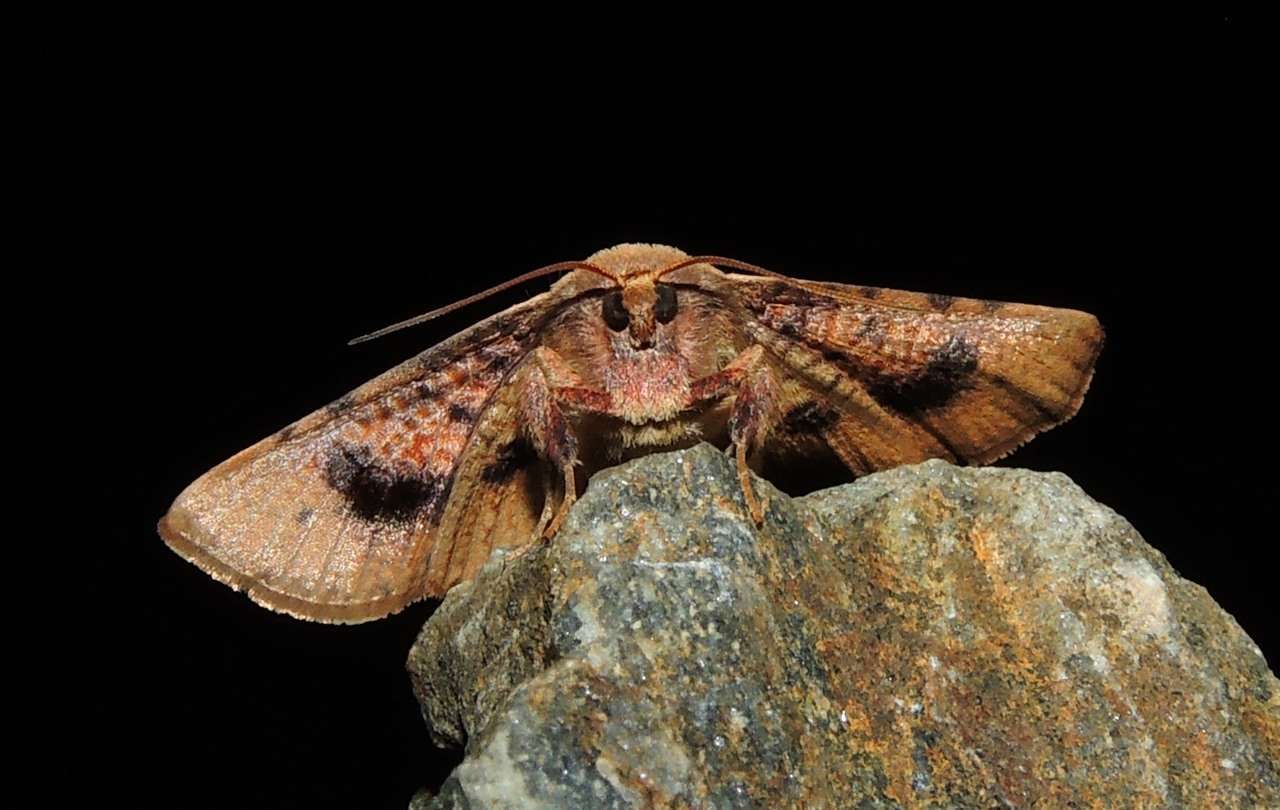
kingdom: Animalia
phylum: Arthropoda
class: Insecta
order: Lepidoptera
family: Thyrididae
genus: Aglaopus
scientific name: Aglaopus pyrrhata
